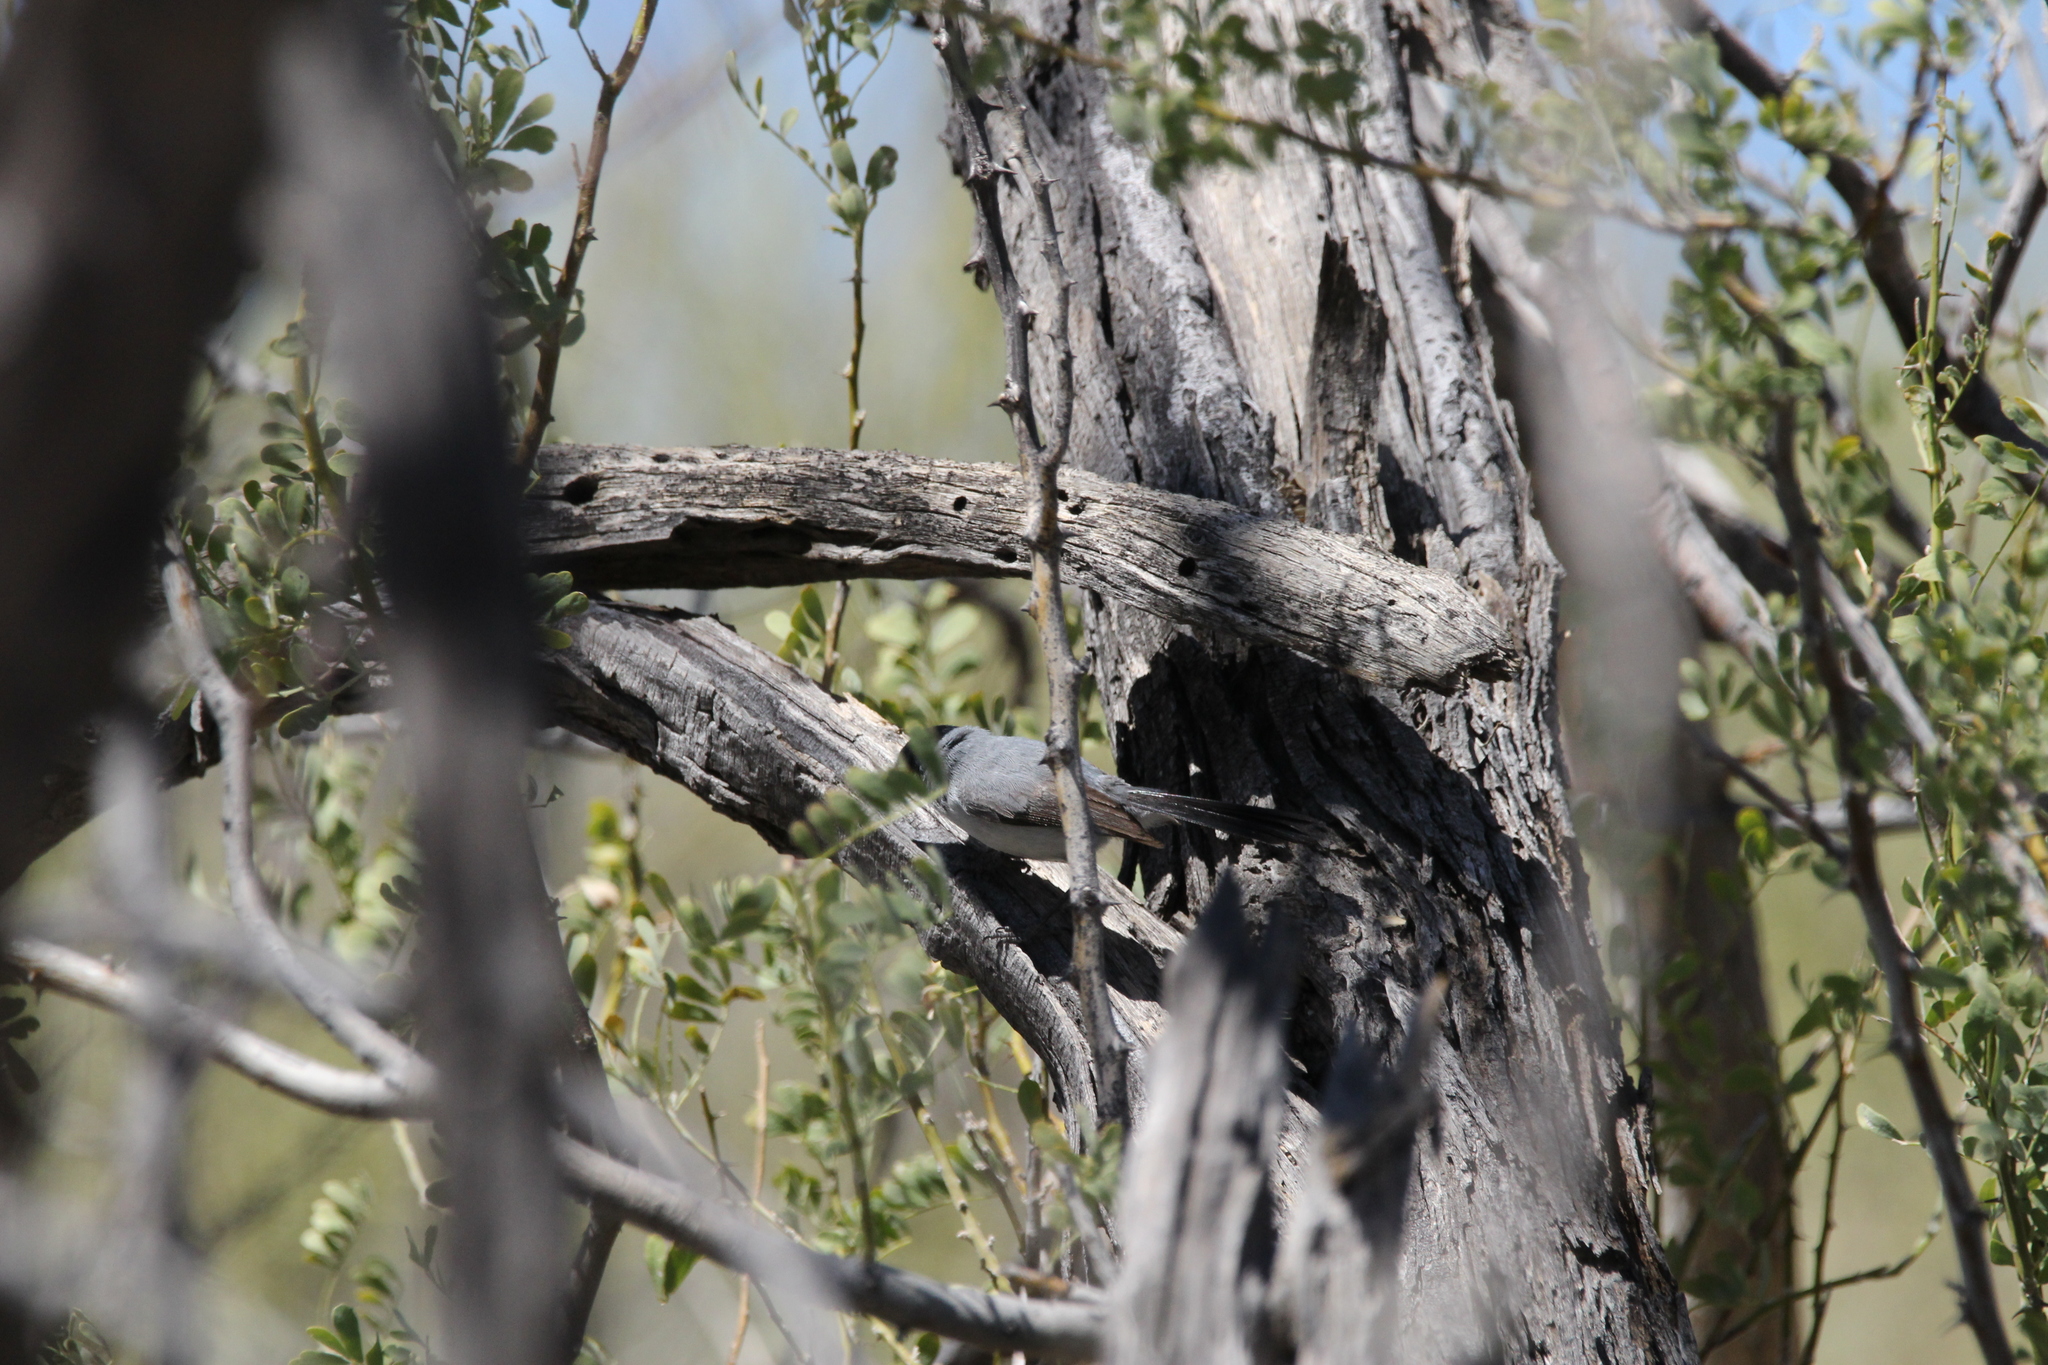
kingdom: Animalia
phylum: Chordata
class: Aves
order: Passeriformes
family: Polioptilidae
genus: Polioptila
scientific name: Polioptila melanura
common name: Black-tailed gnatcatcher
